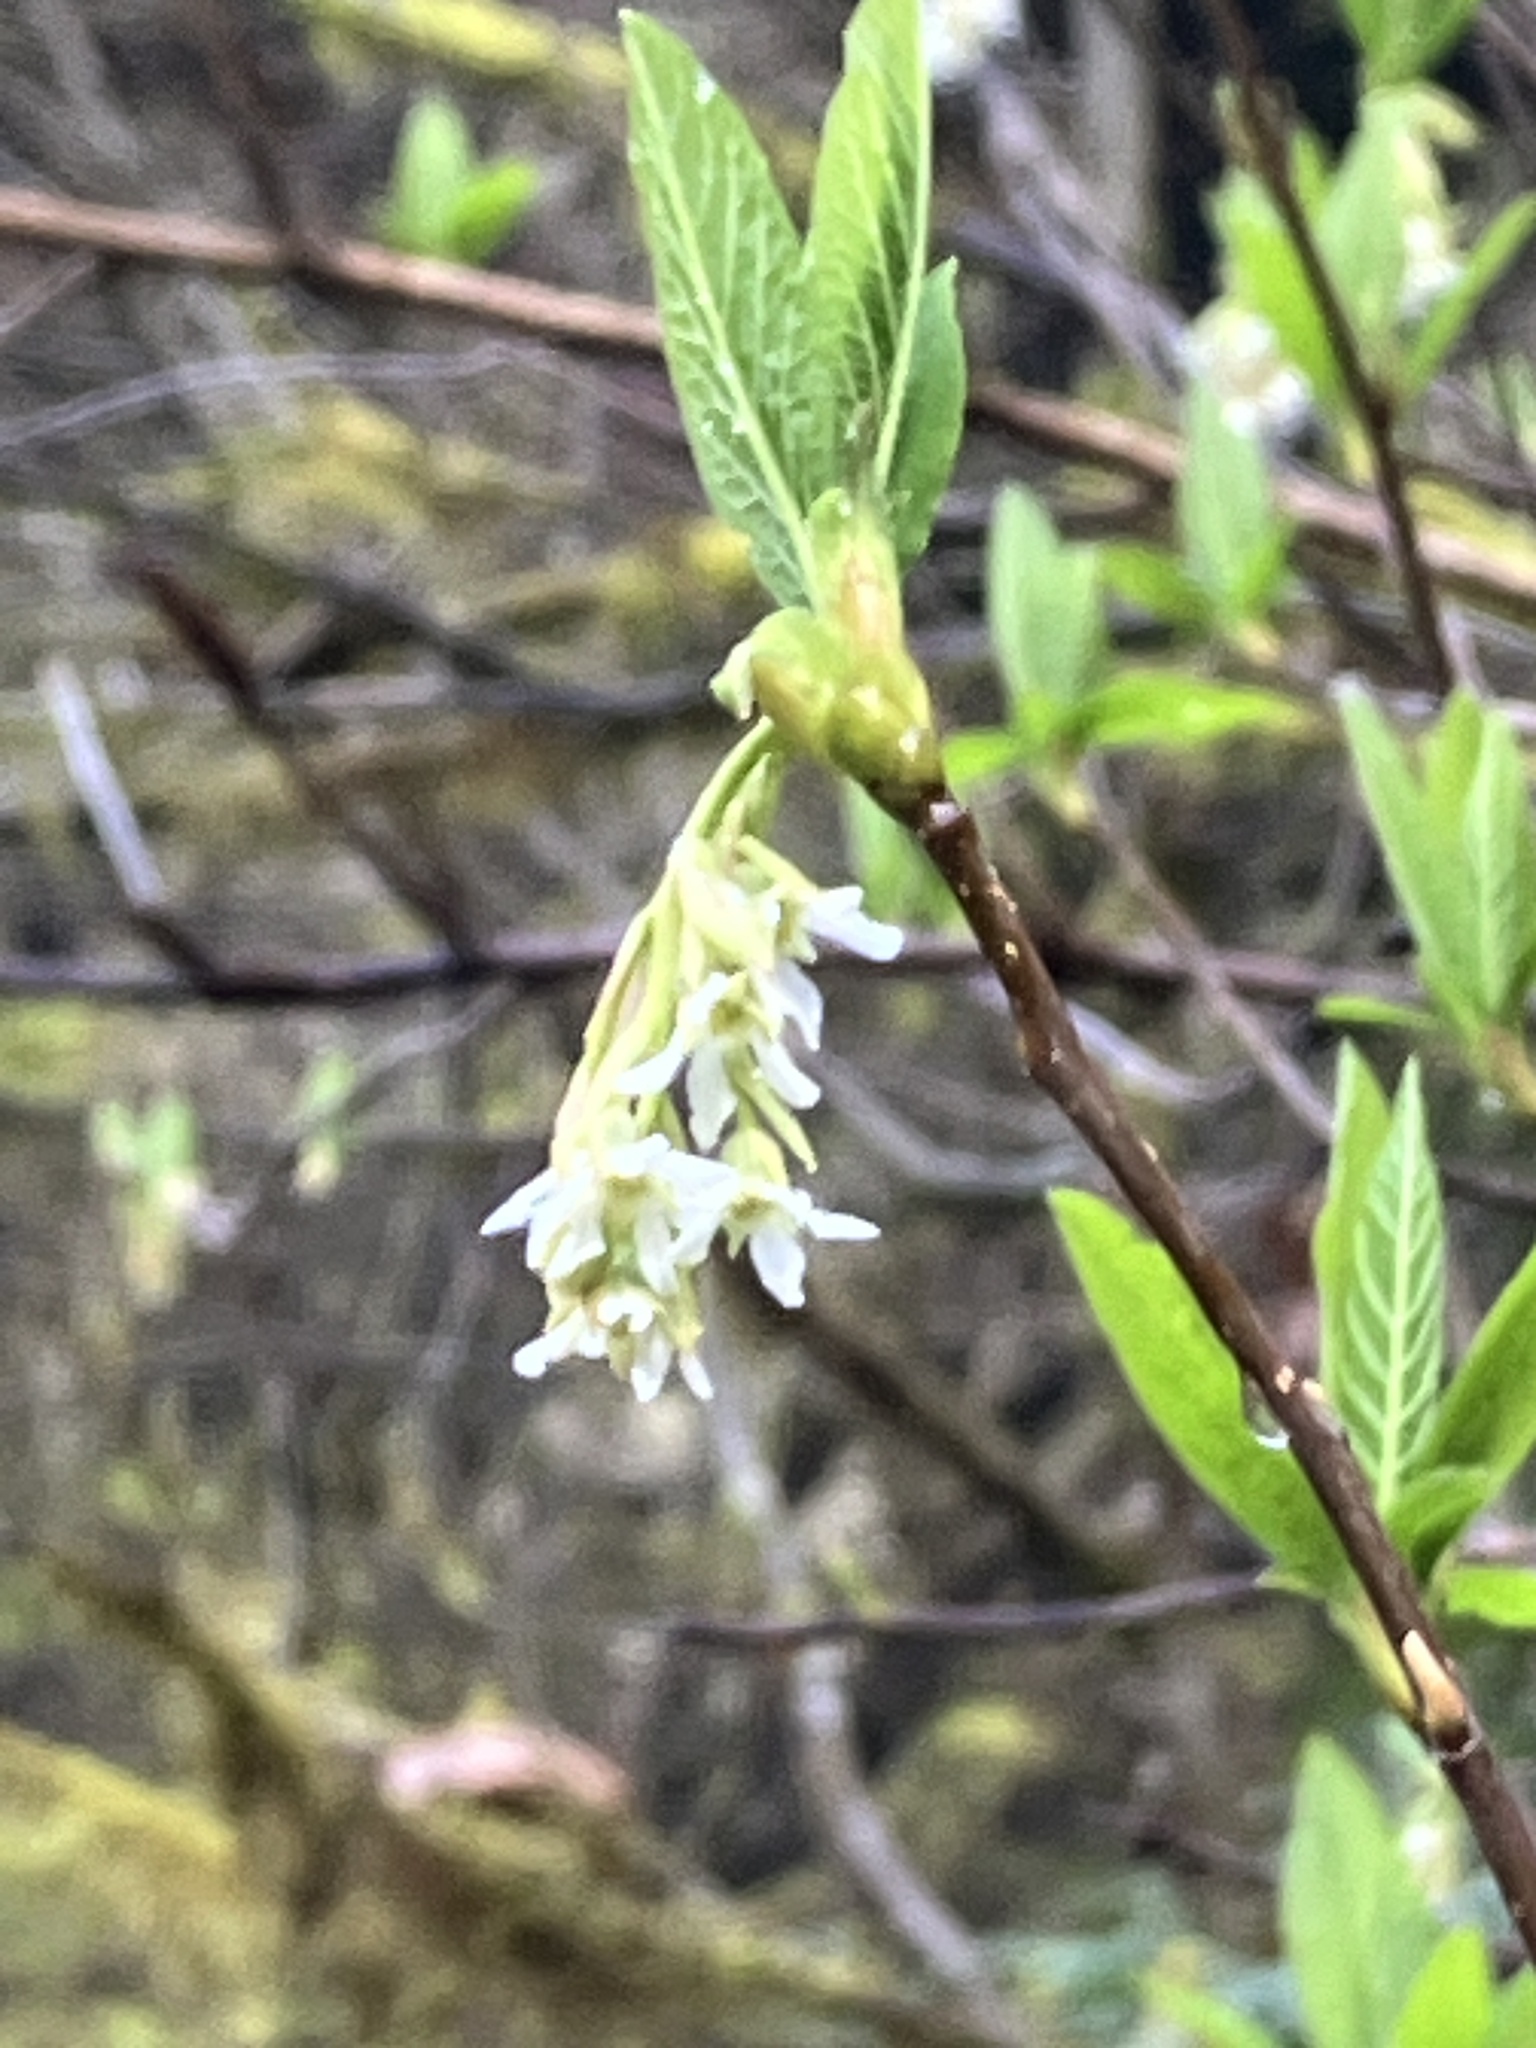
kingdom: Plantae
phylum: Tracheophyta
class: Magnoliopsida
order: Rosales
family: Rosaceae
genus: Oemleria
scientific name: Oemleria cerasiformis
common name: Osoberry
